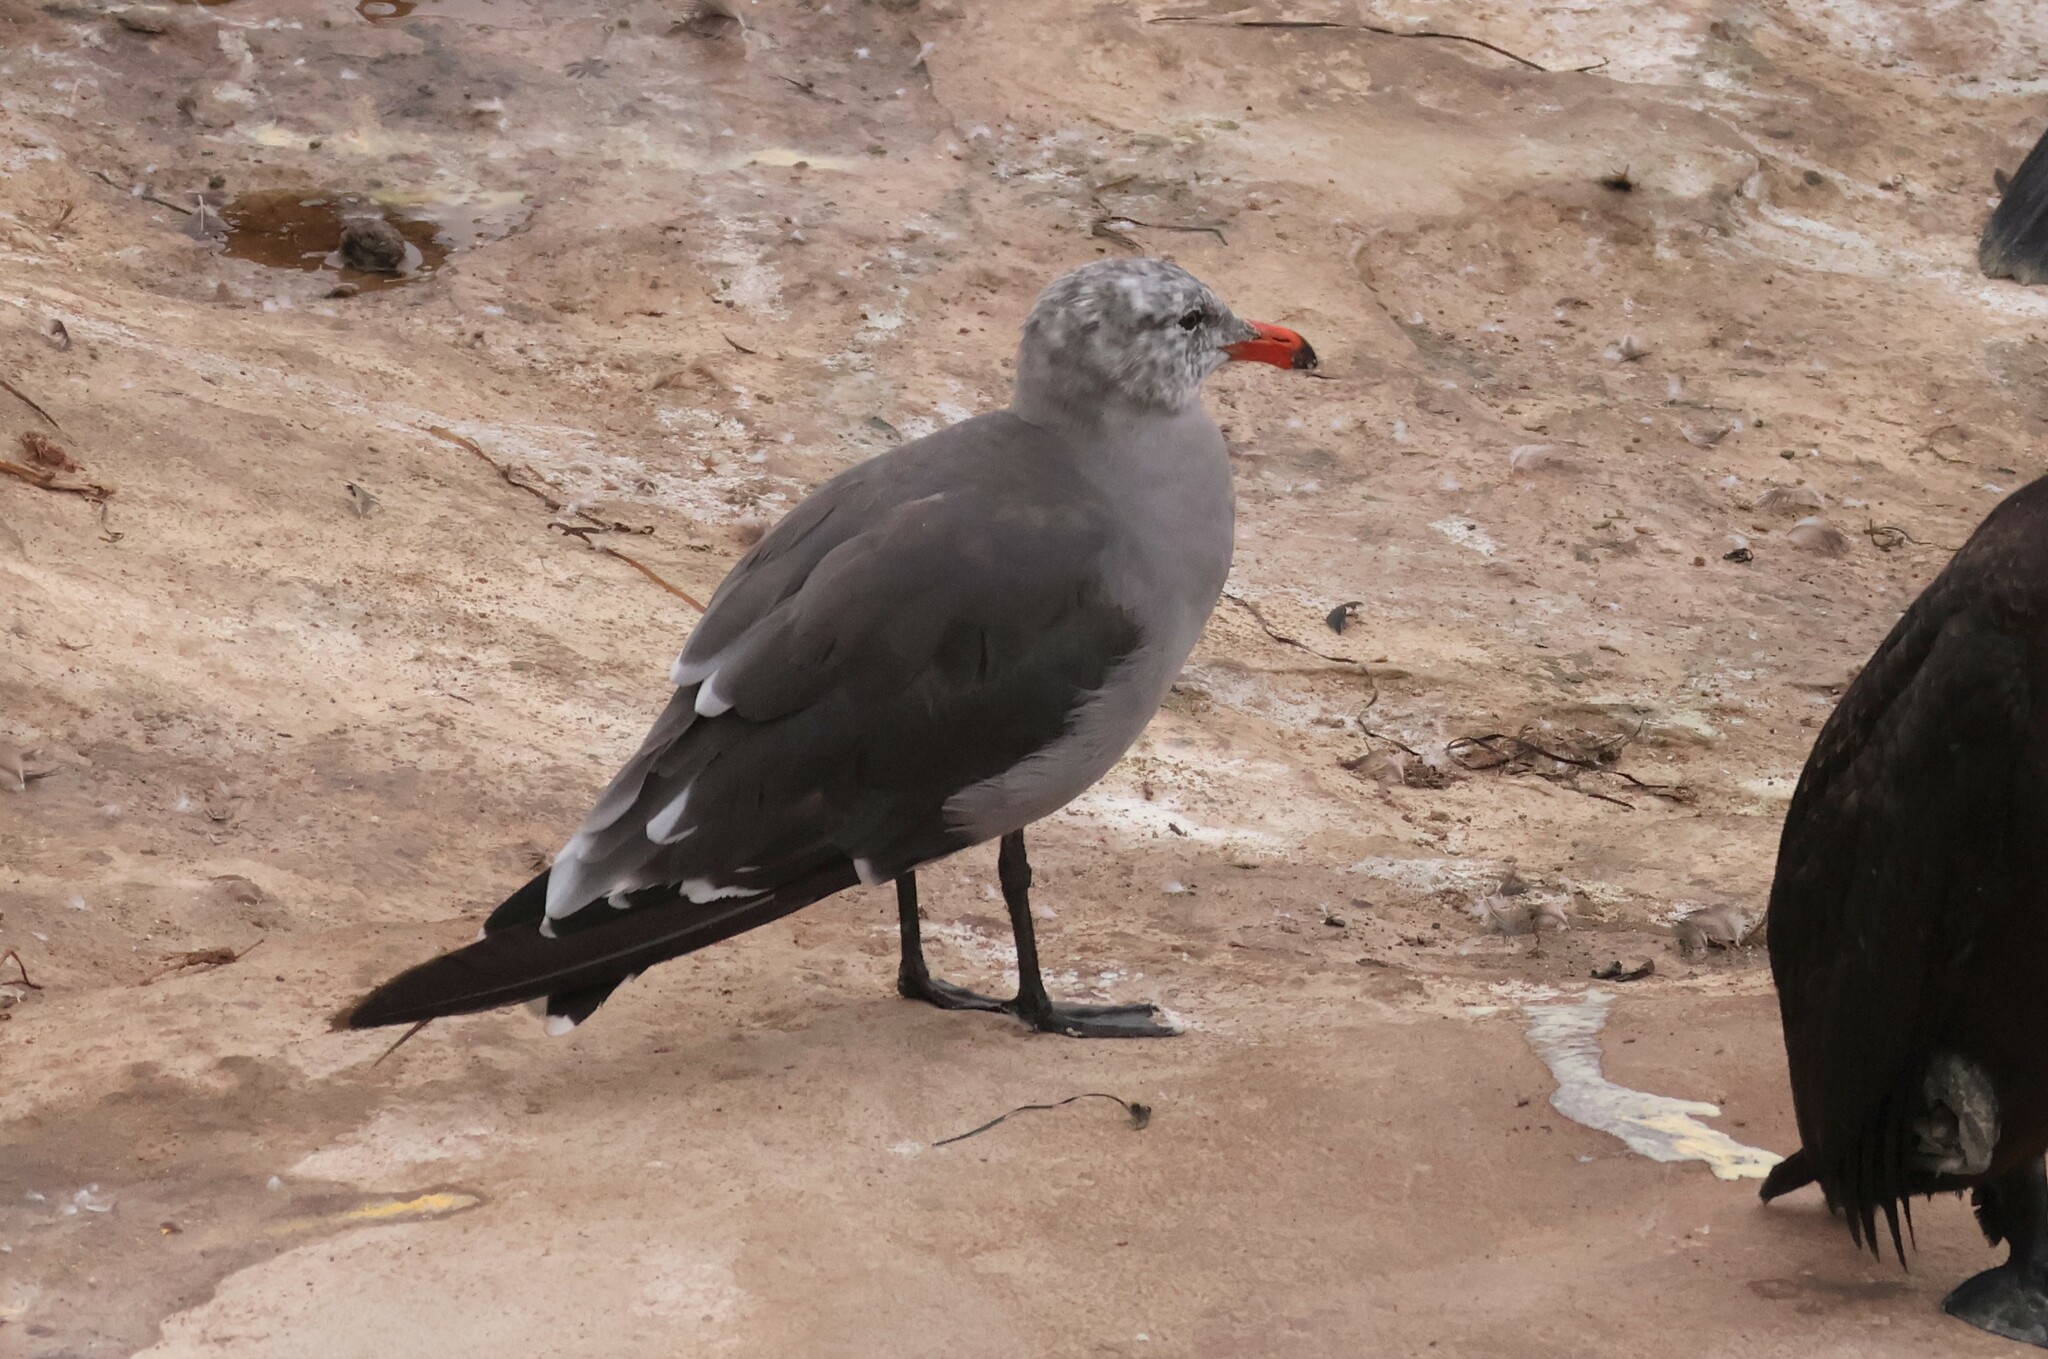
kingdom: Animalia
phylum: Chordata
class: Aves
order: Charadriiformes
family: Laridae
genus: Larus
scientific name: Larus heermanni
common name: Heermann's gull
